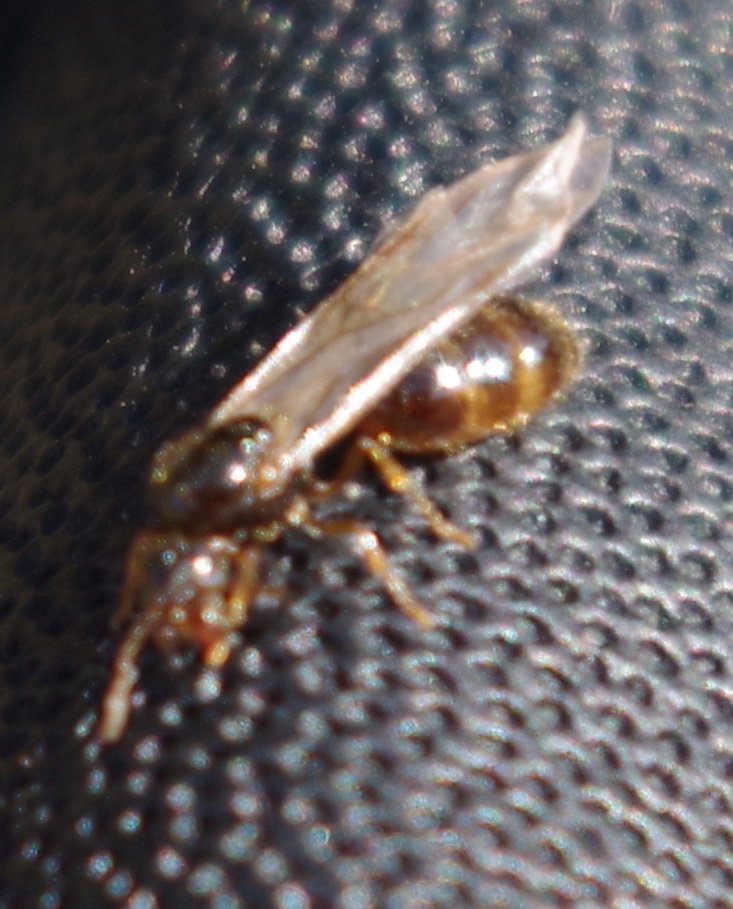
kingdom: Animalia
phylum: Arthropoda
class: Insecta
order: Hymenoptera
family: Formicidae
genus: Solenopsis
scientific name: Solenopsis fugax
